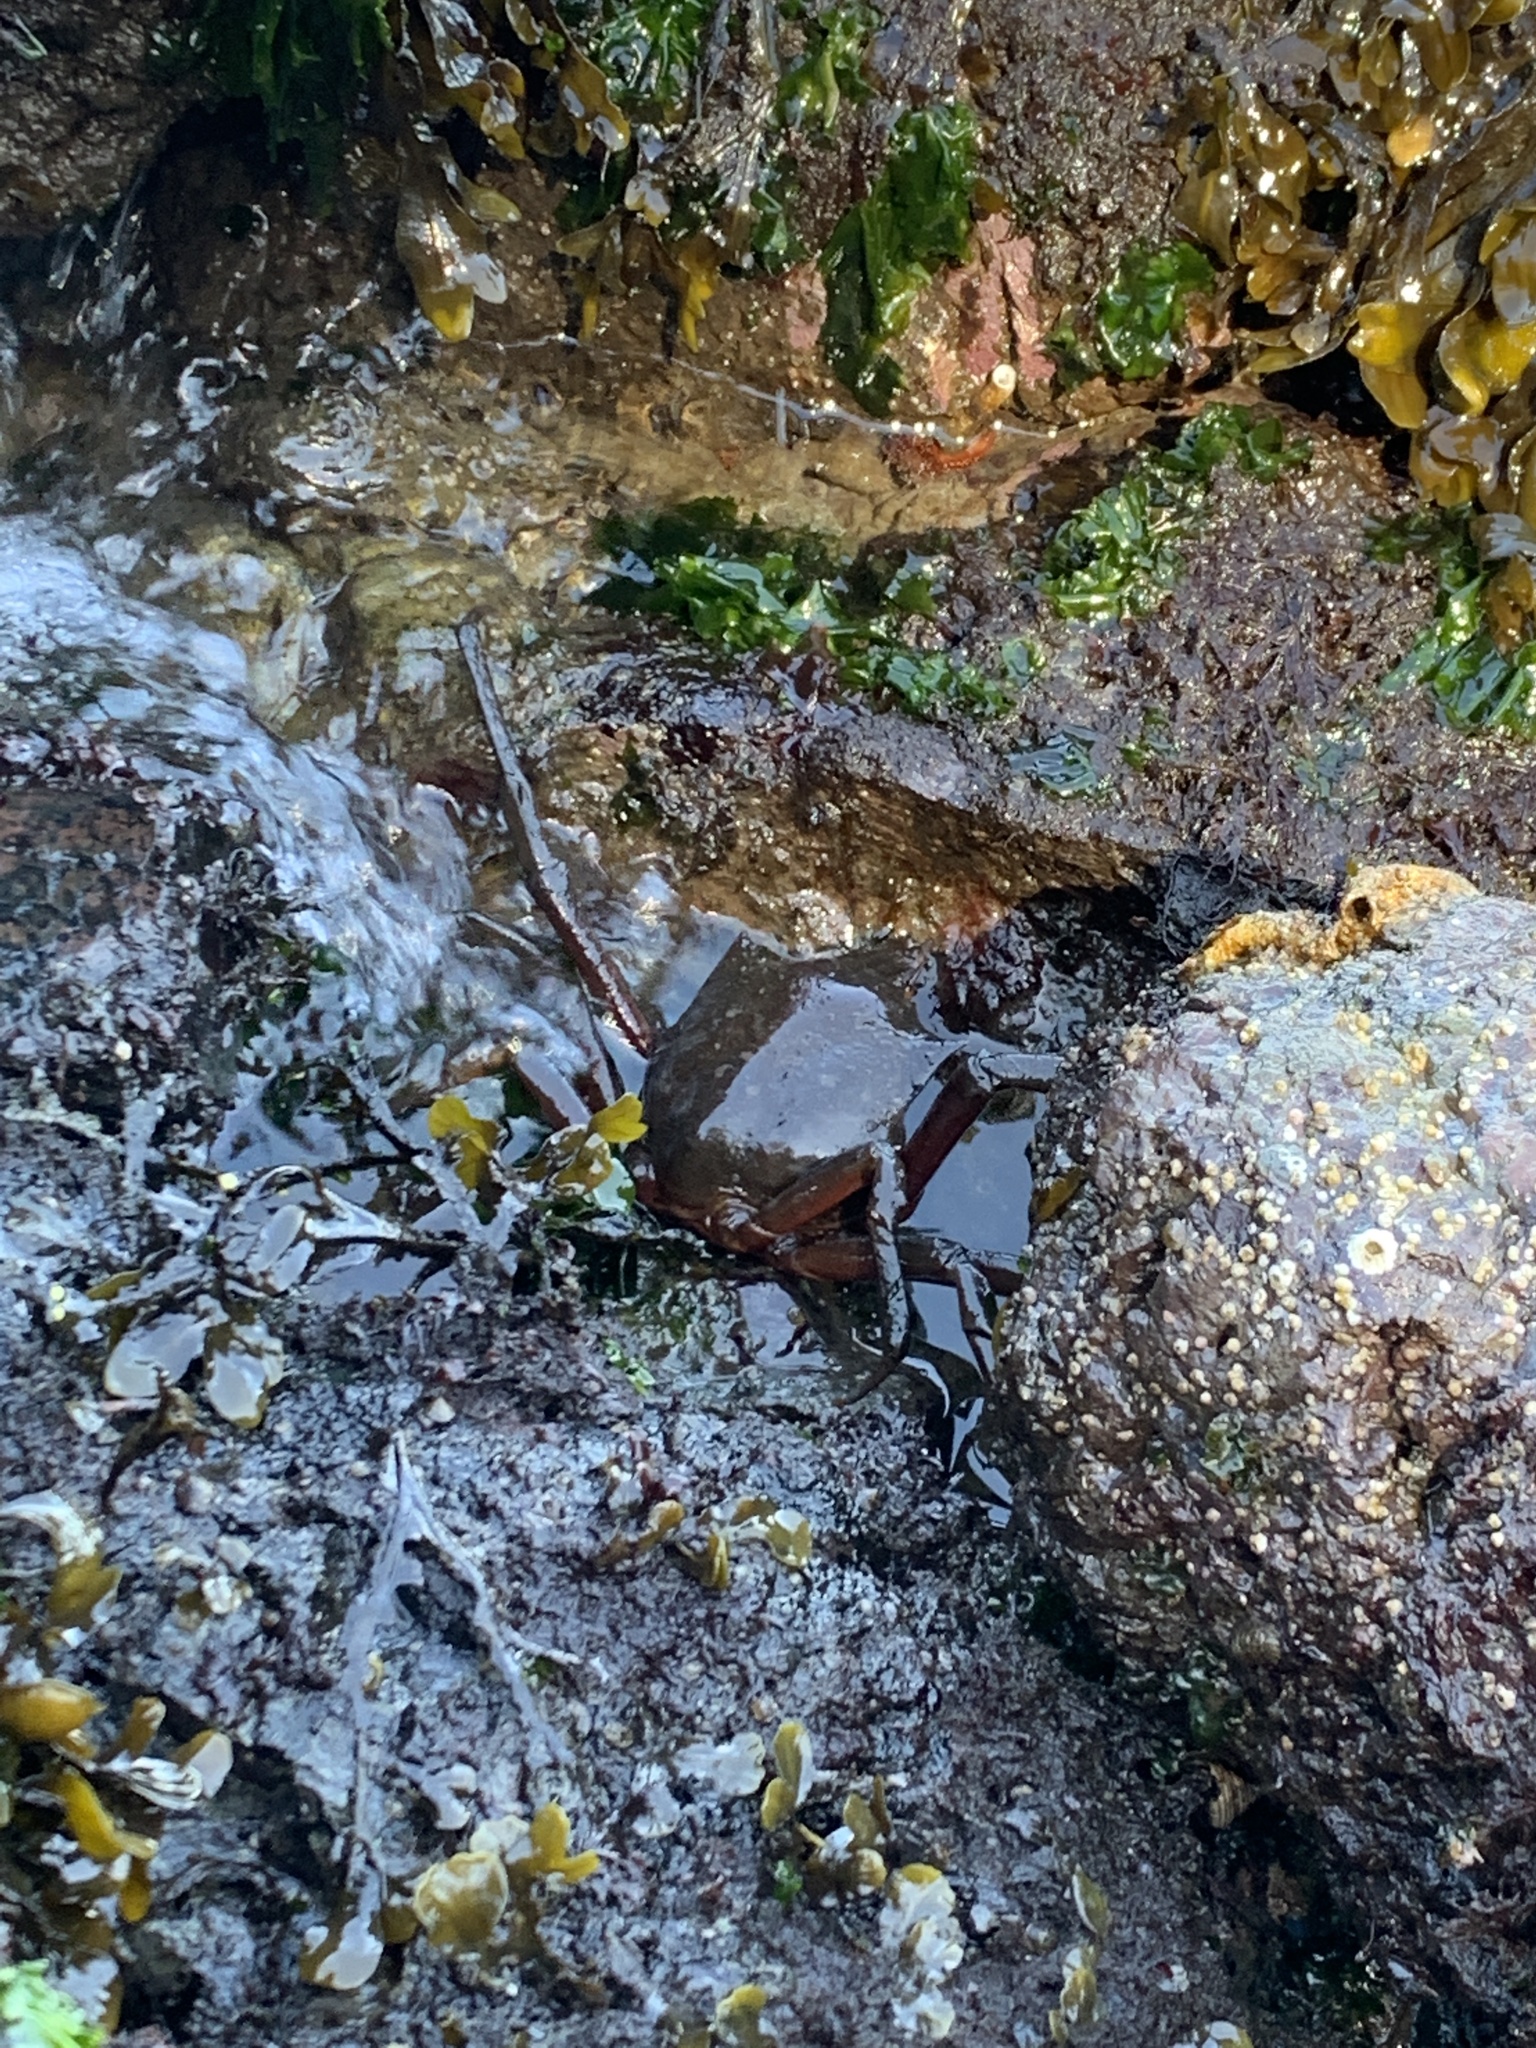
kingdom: Animalia
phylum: Arthropoda
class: Malacostraca
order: Decapoda
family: Epialtidae
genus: Pugettia
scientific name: Pugettia producta
